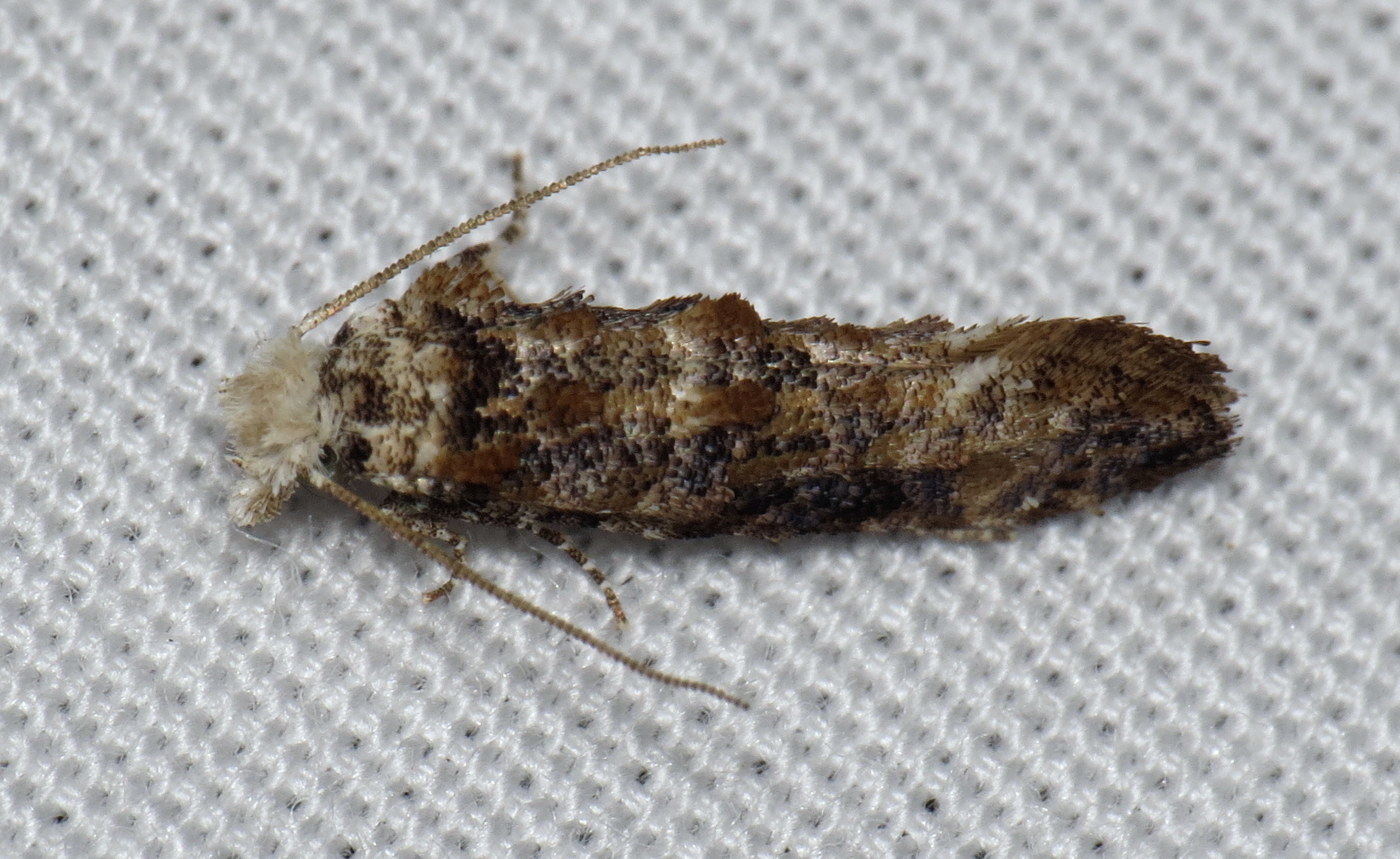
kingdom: Animalia
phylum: Arthropoda
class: Insecta
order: Lepidoptera
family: Tineidae
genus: Xylesthia
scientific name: Xylesthia pruniramiella
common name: Clemens' bark moth
